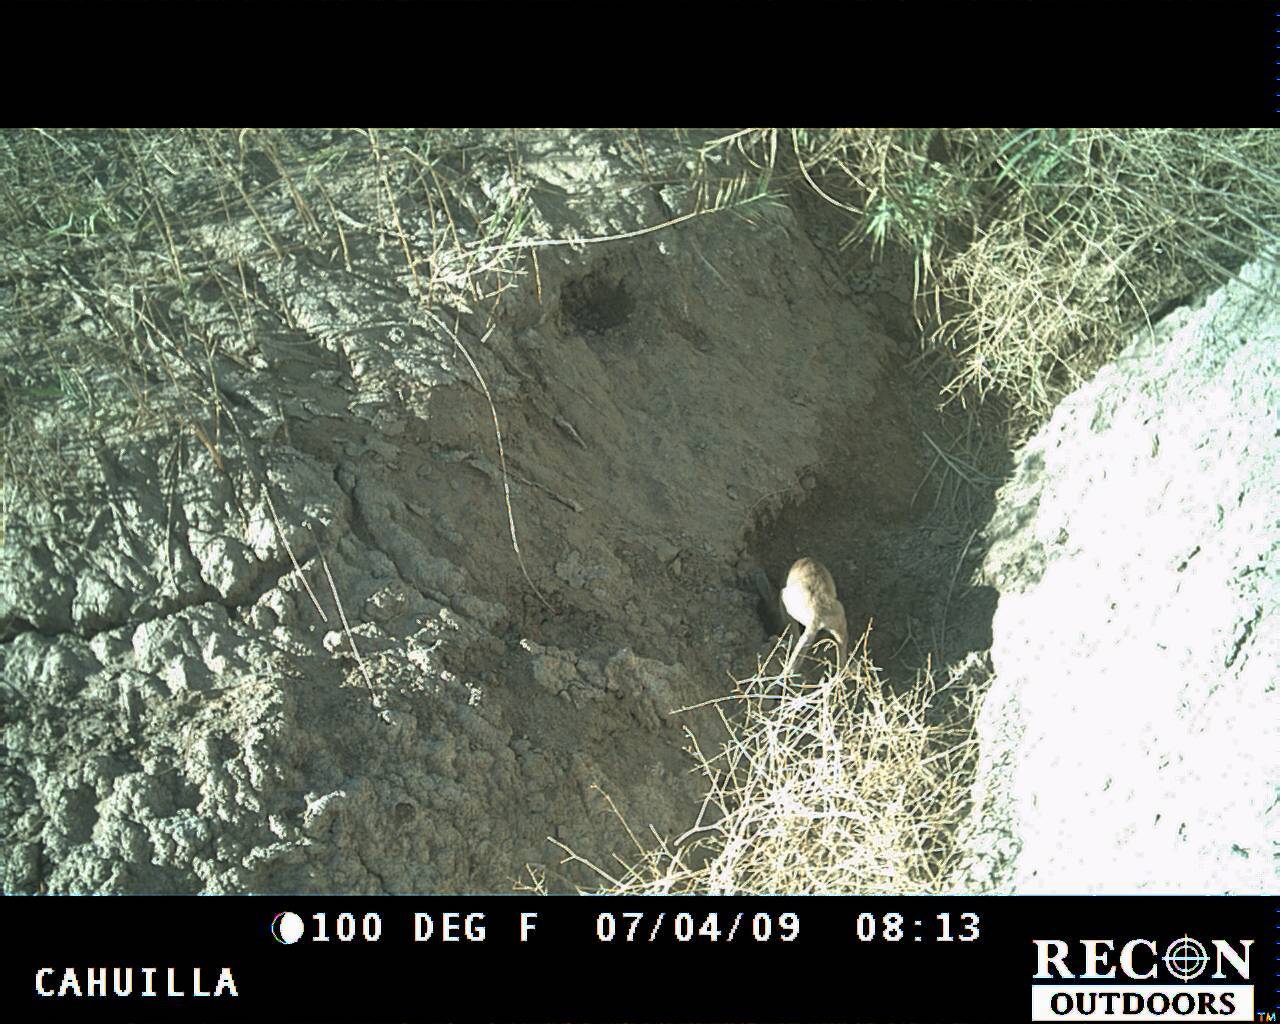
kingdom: Animalia
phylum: Chordata
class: Mammalia
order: Carnivora
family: Canidae
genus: Canis
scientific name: Canis latrans
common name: Coyote
